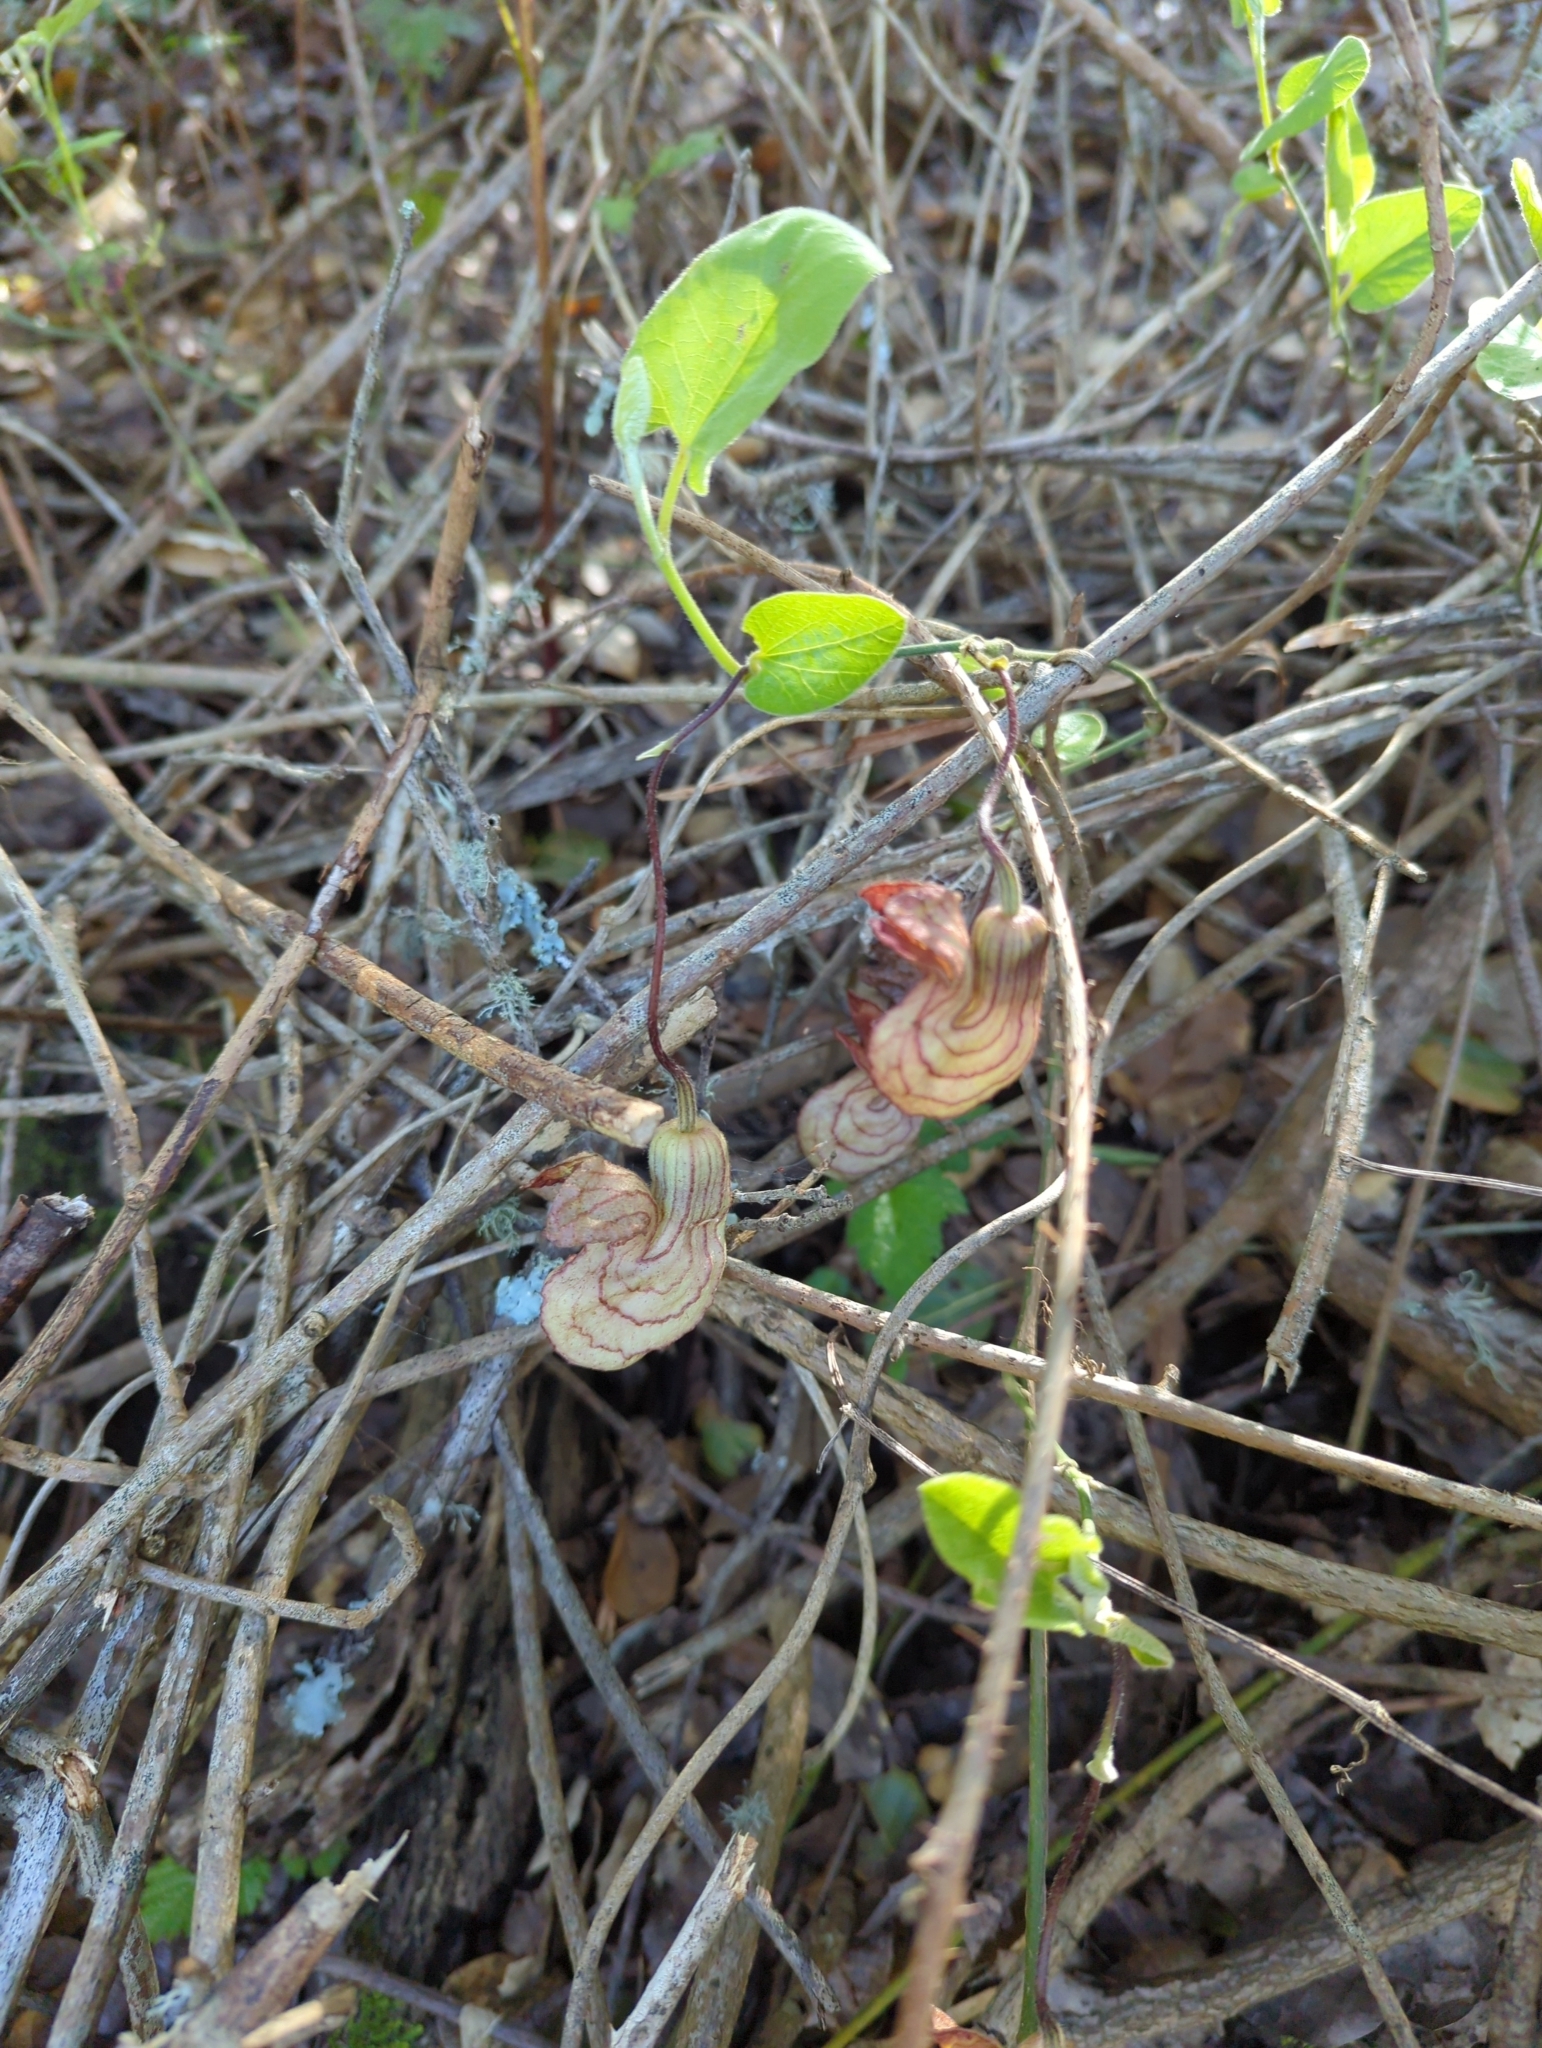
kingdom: Plantae
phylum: Tracheophyta
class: Magnoliopsida
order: Piperales
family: Aristolochiaceae
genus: Isotrema
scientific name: Isotrema californicum
